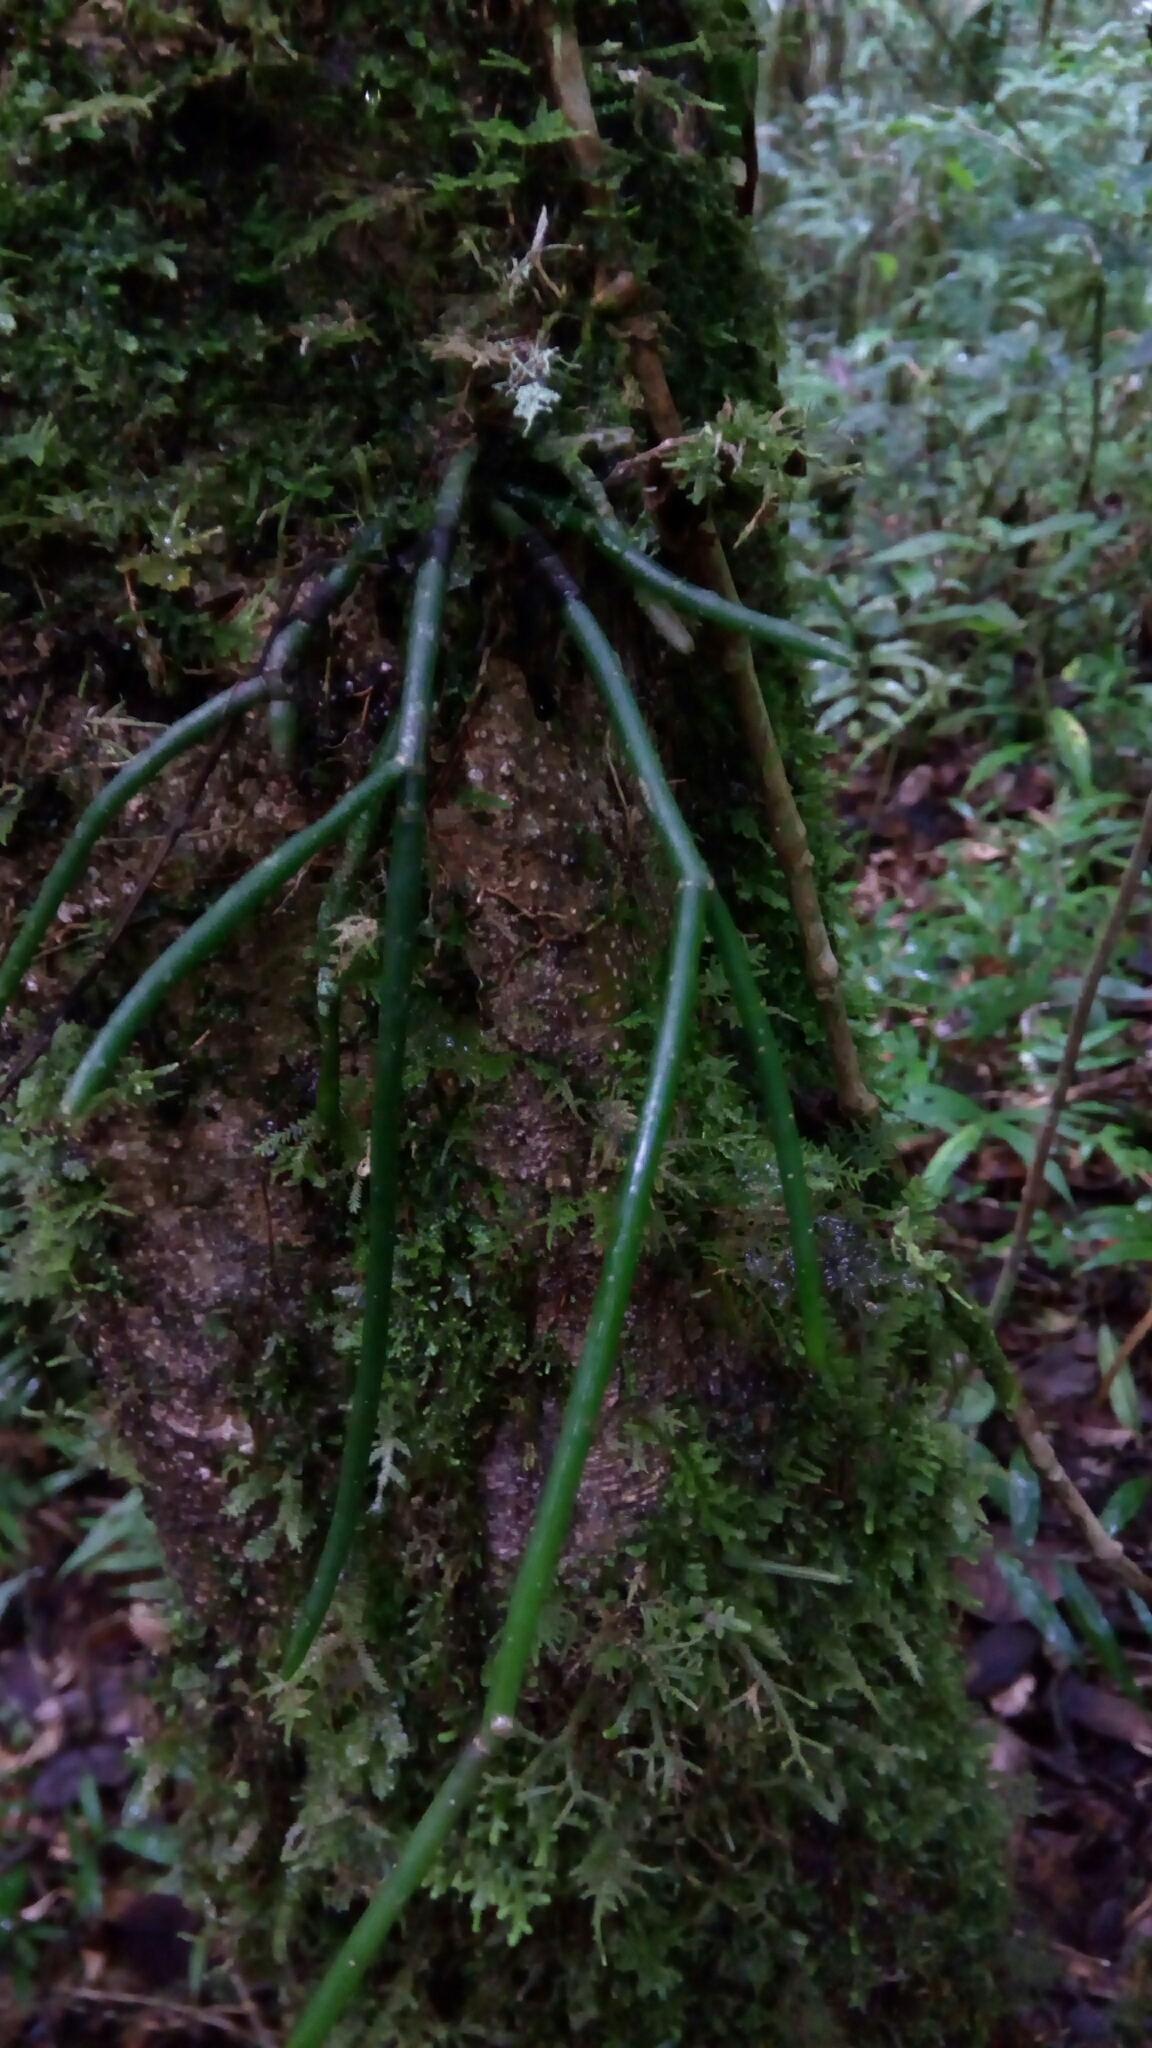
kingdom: Plantae
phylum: Tracheophyta
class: Magnoliopsida
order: Caryophyllales
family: Cactaceae
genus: Rhipsalis
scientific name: Rhipsalis baccifera
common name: Mistletoe cactus
